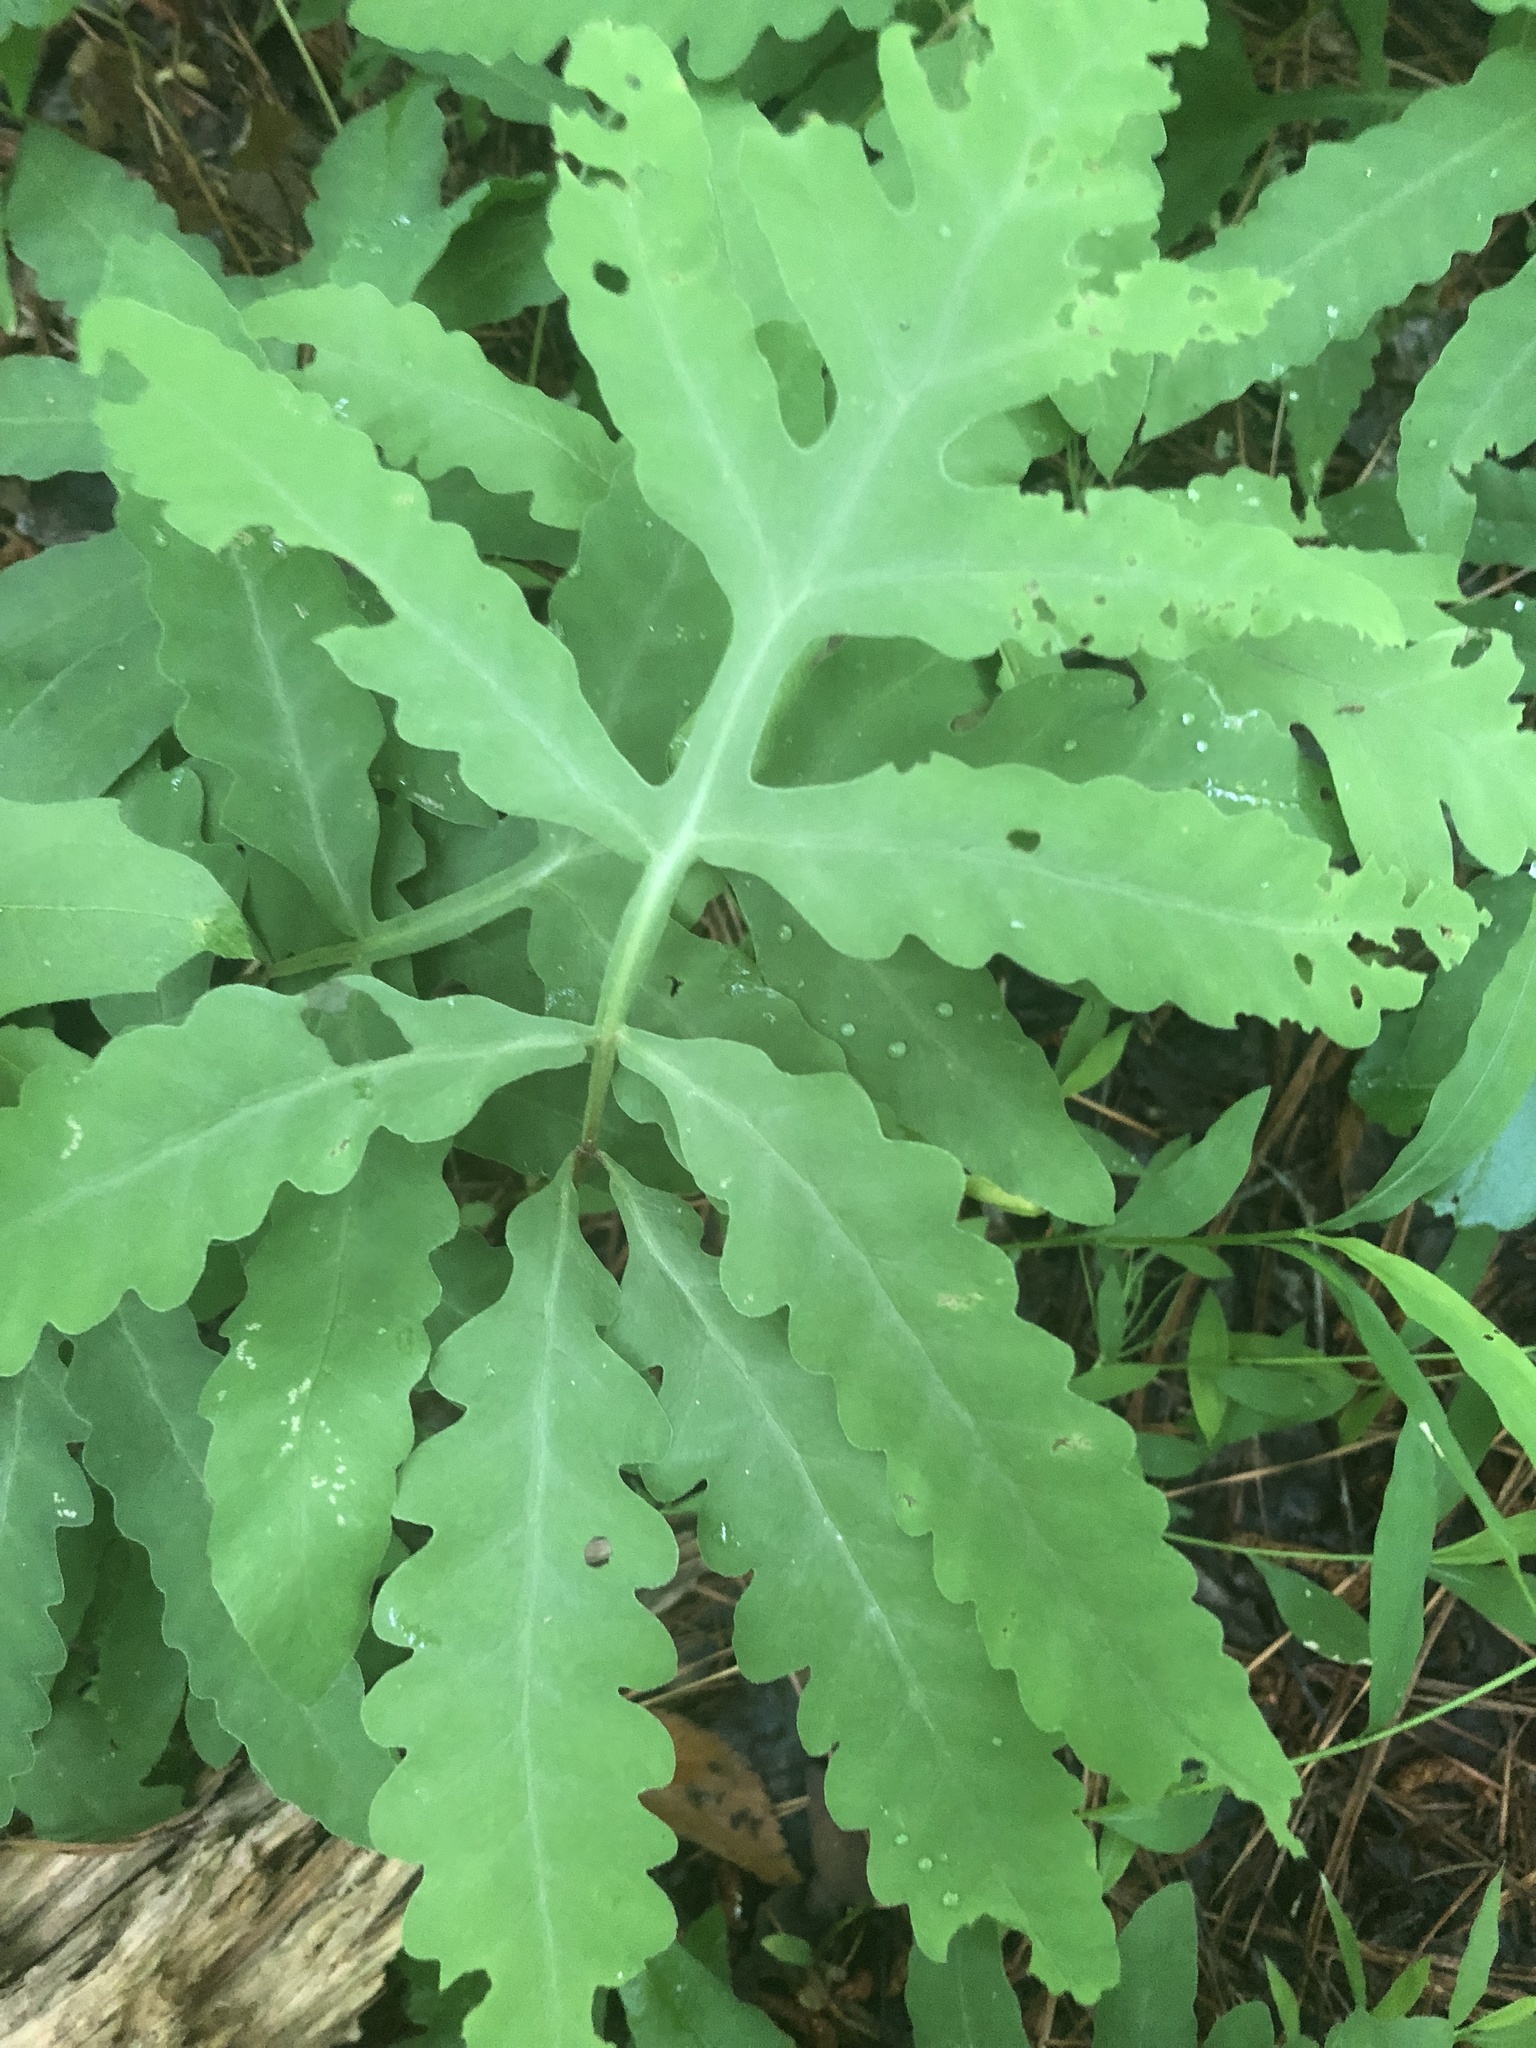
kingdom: Plantae
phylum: Tracheophyta
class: Polypodiopsida
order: Polypodiales
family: Onocleaceae
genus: Onoclea
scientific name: Onoclea sensibilis
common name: Sensitive fern
